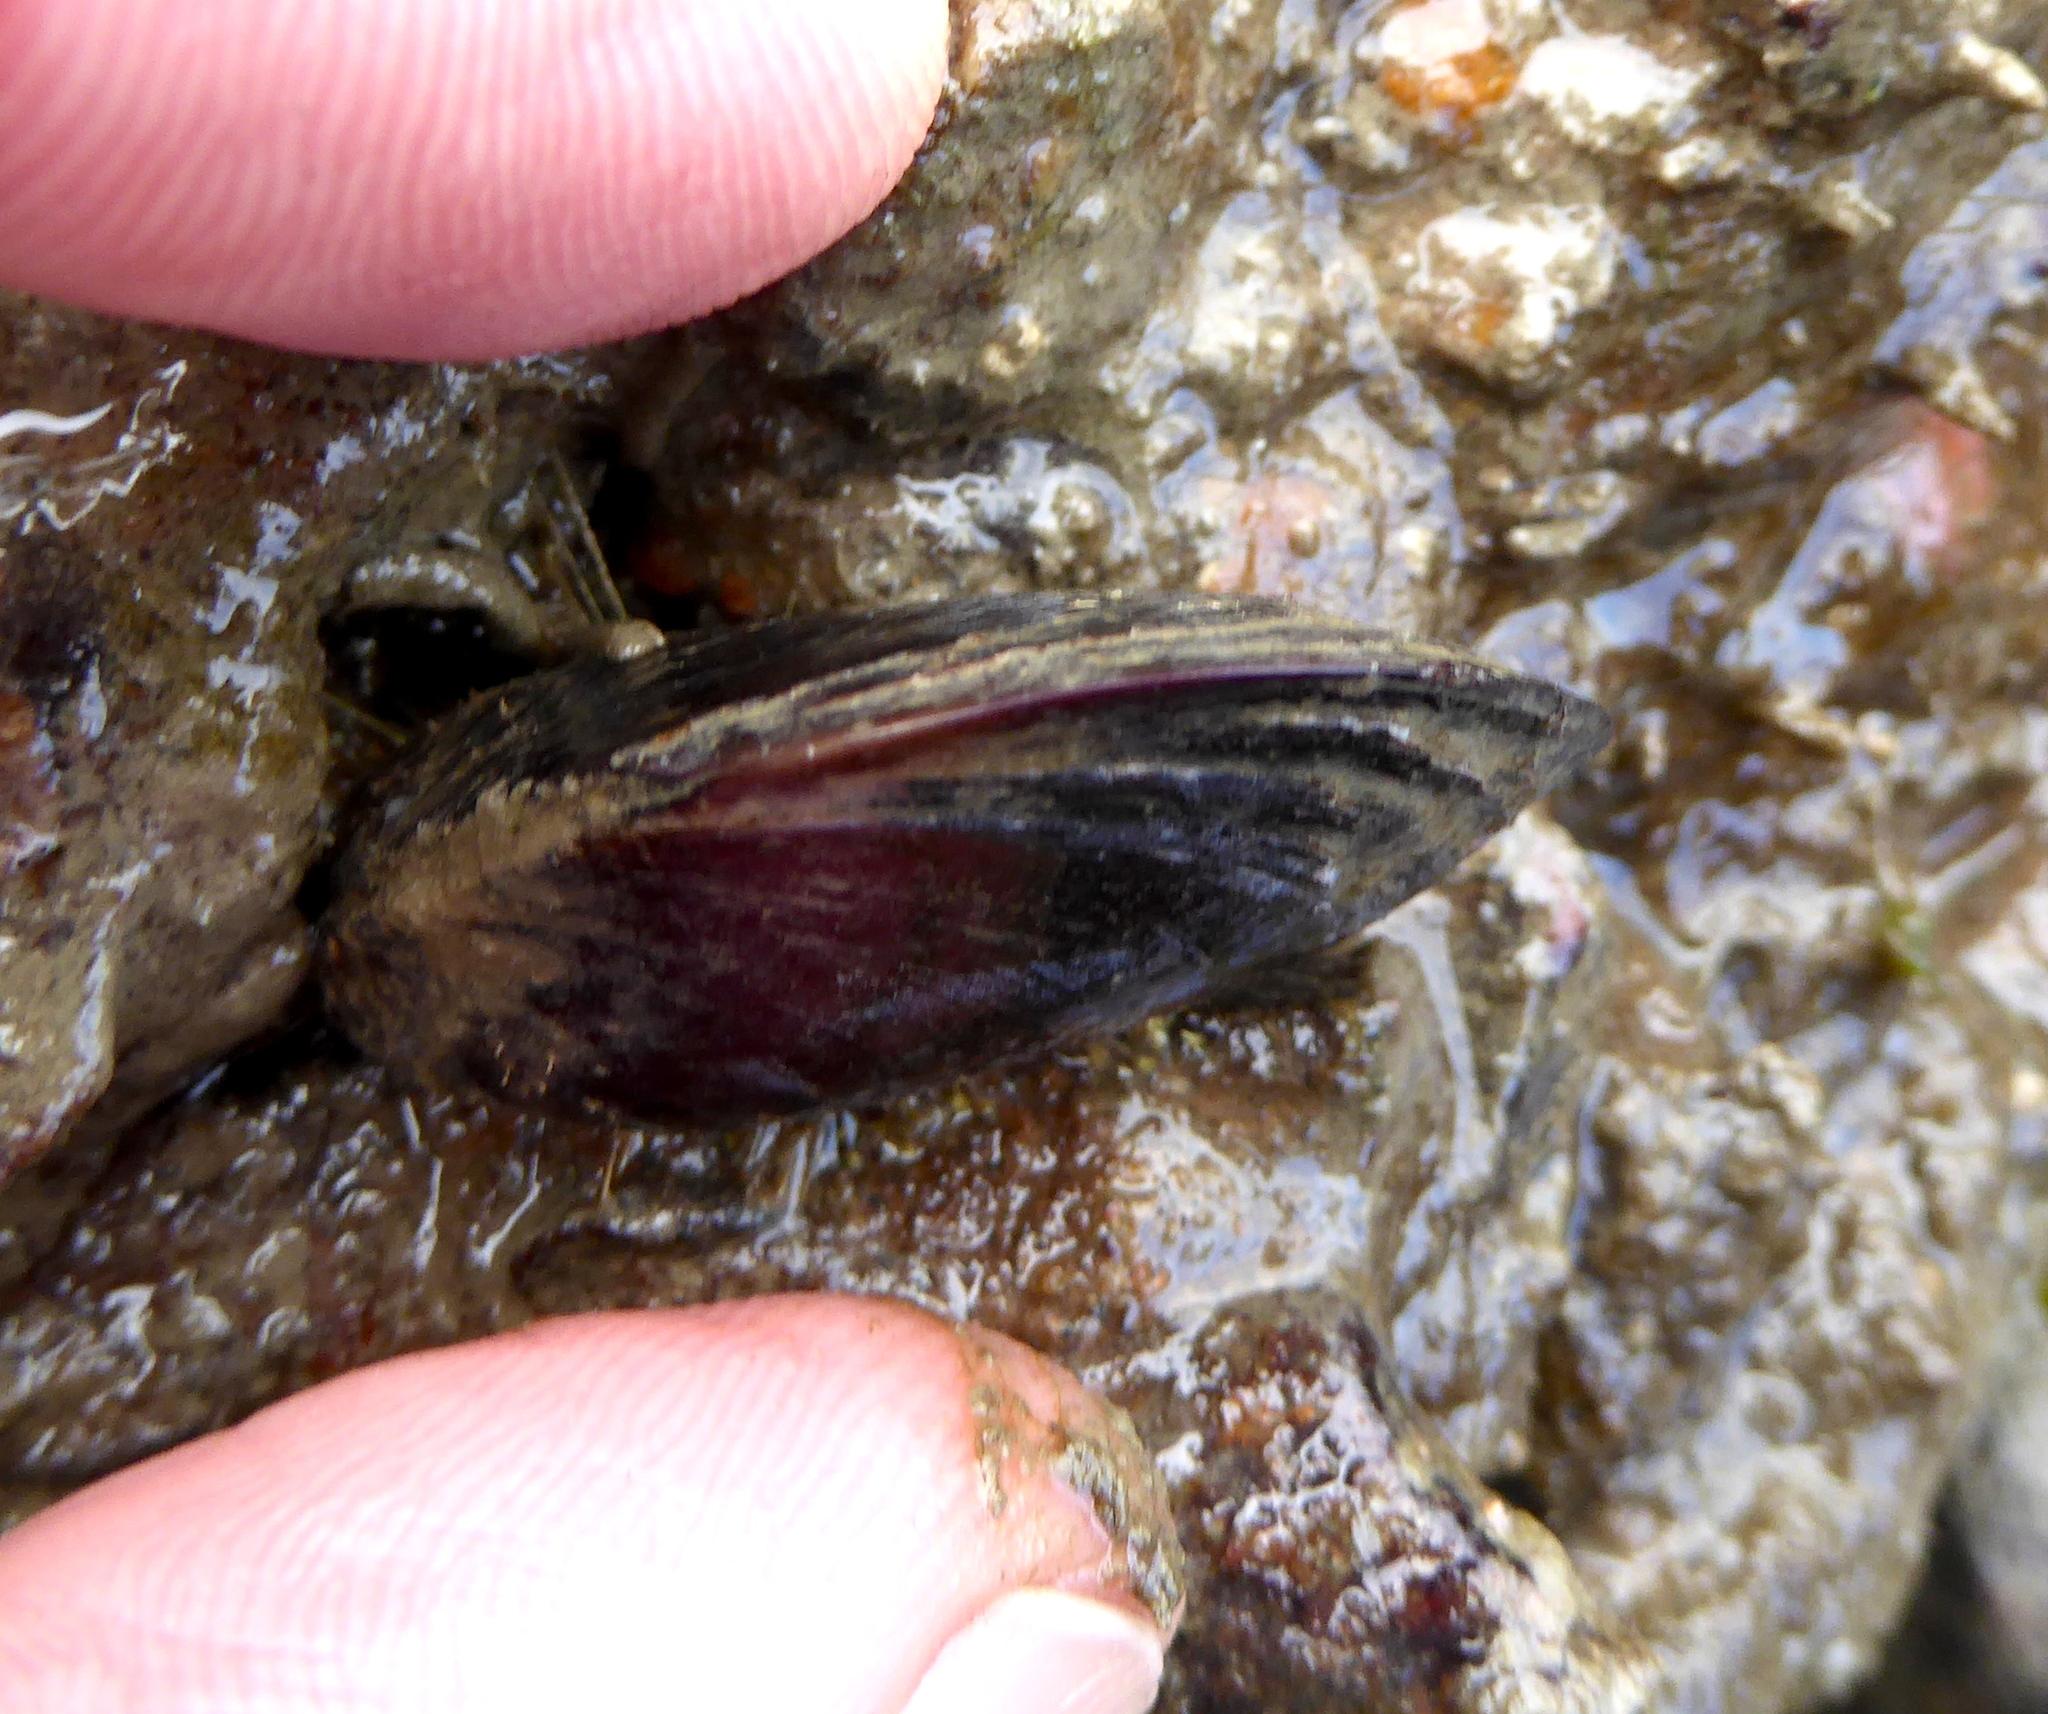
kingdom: Animalia
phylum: Mollusca
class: Bivalvia
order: Mytilida
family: Mytilidae
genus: Mytilus
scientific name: Mytilus
